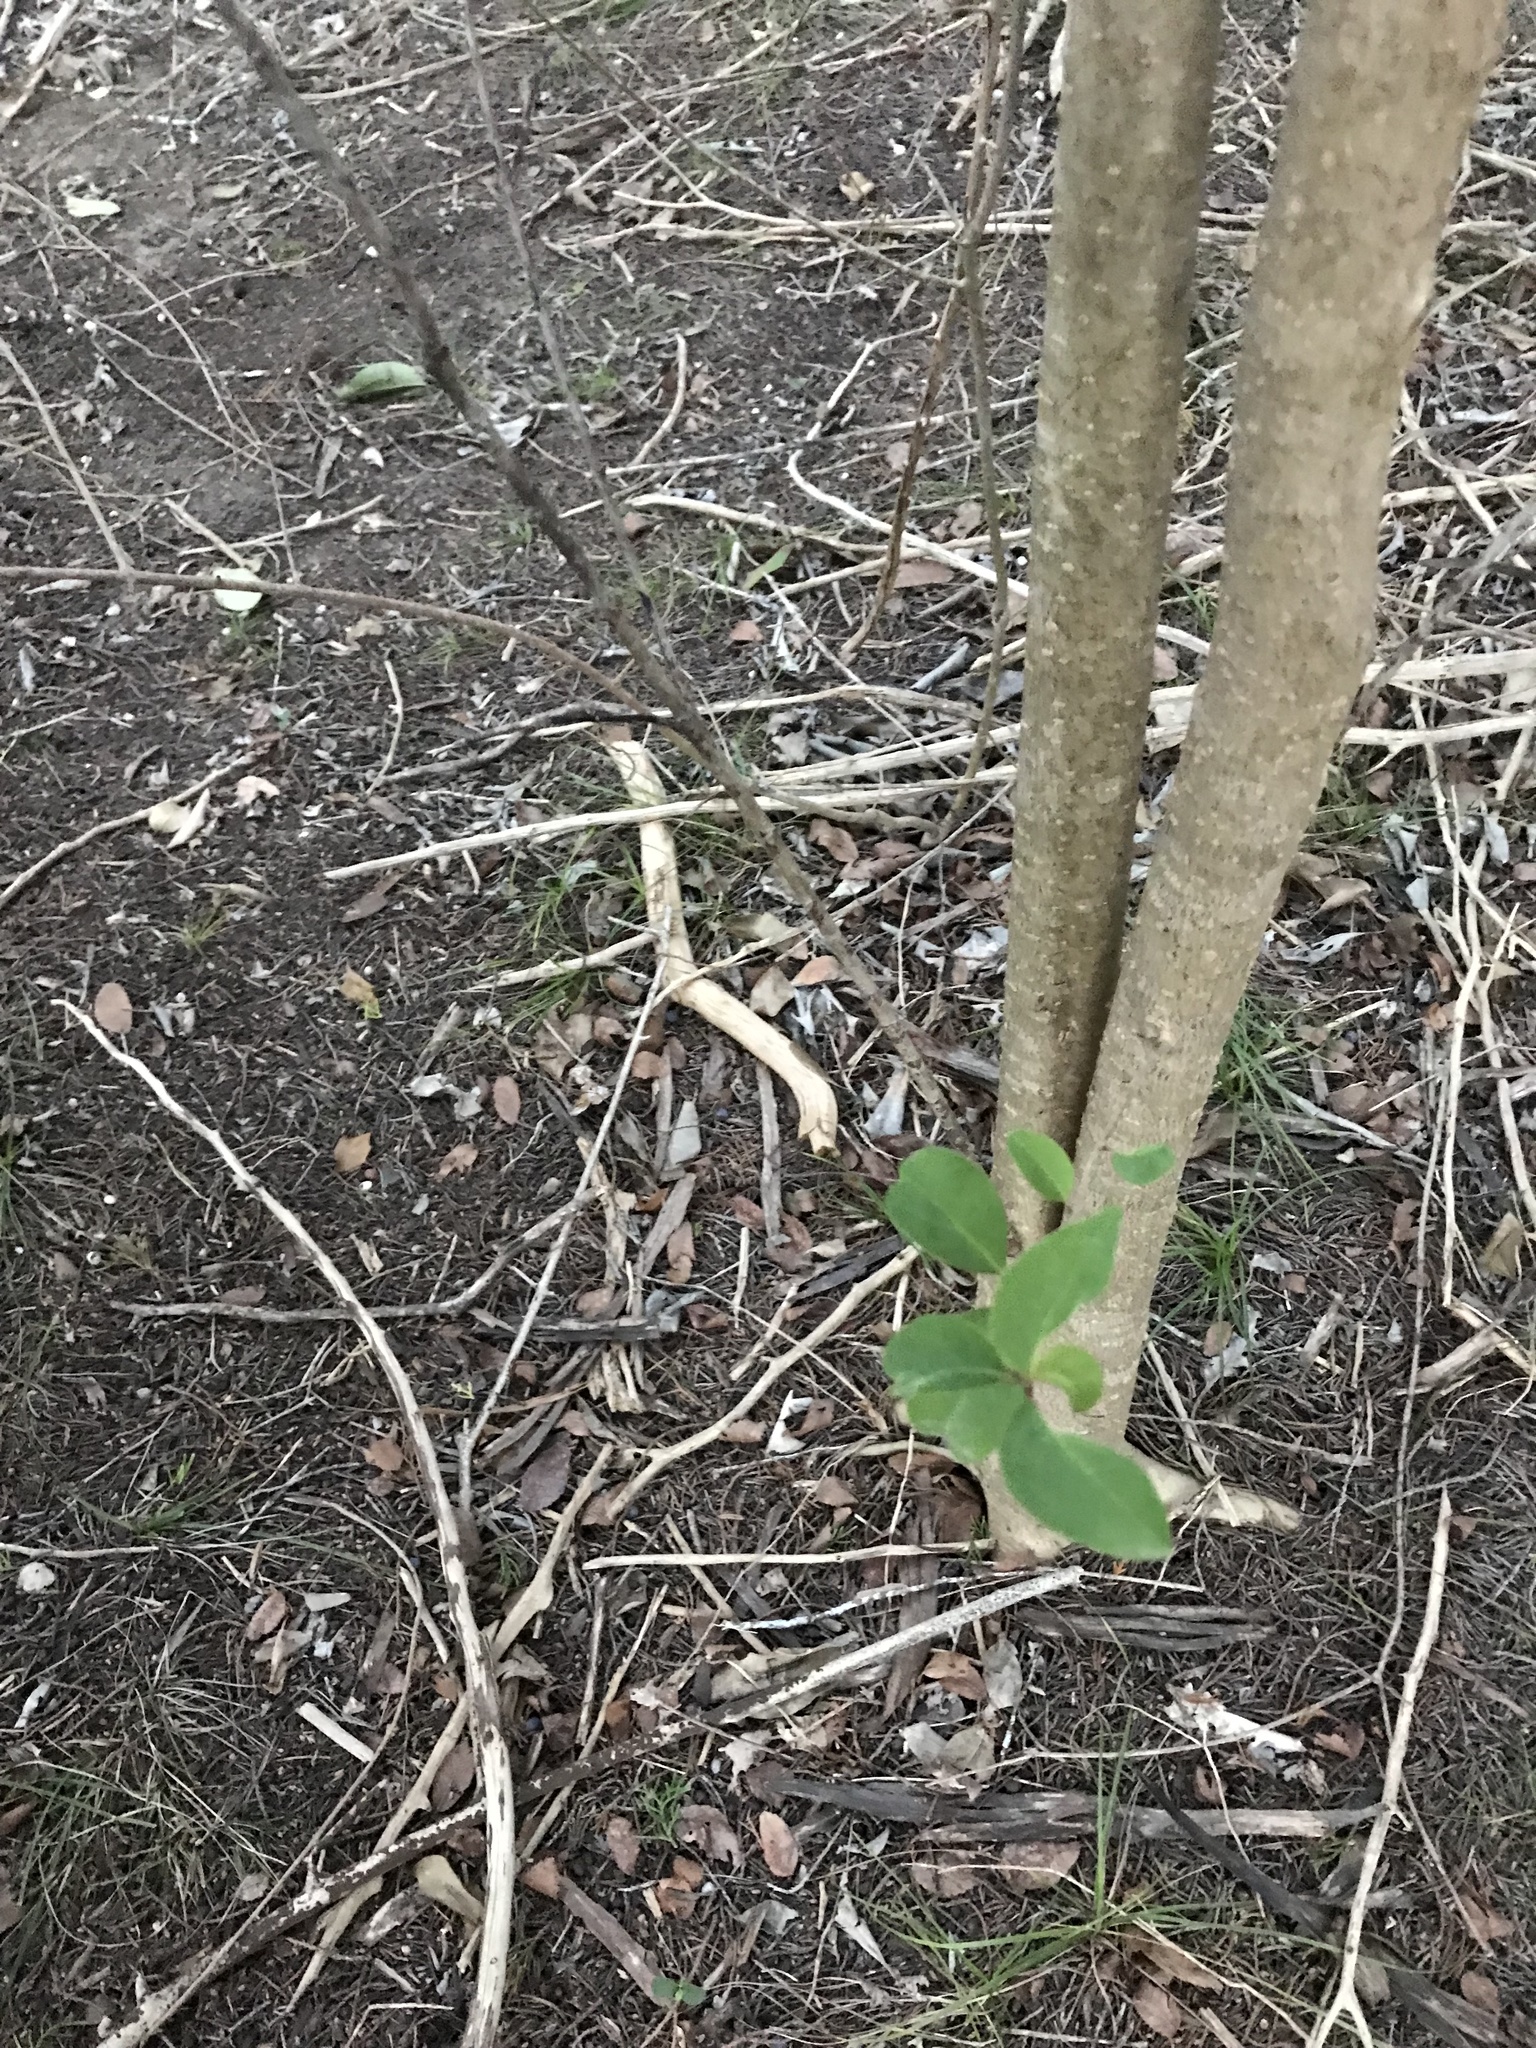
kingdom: Plantae
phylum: Tracheophyta
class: Magnoliopsida
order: Lamiales
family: Oleaceae
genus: Ligustrum
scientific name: Ligustrum lucidum
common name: Glossy privet
